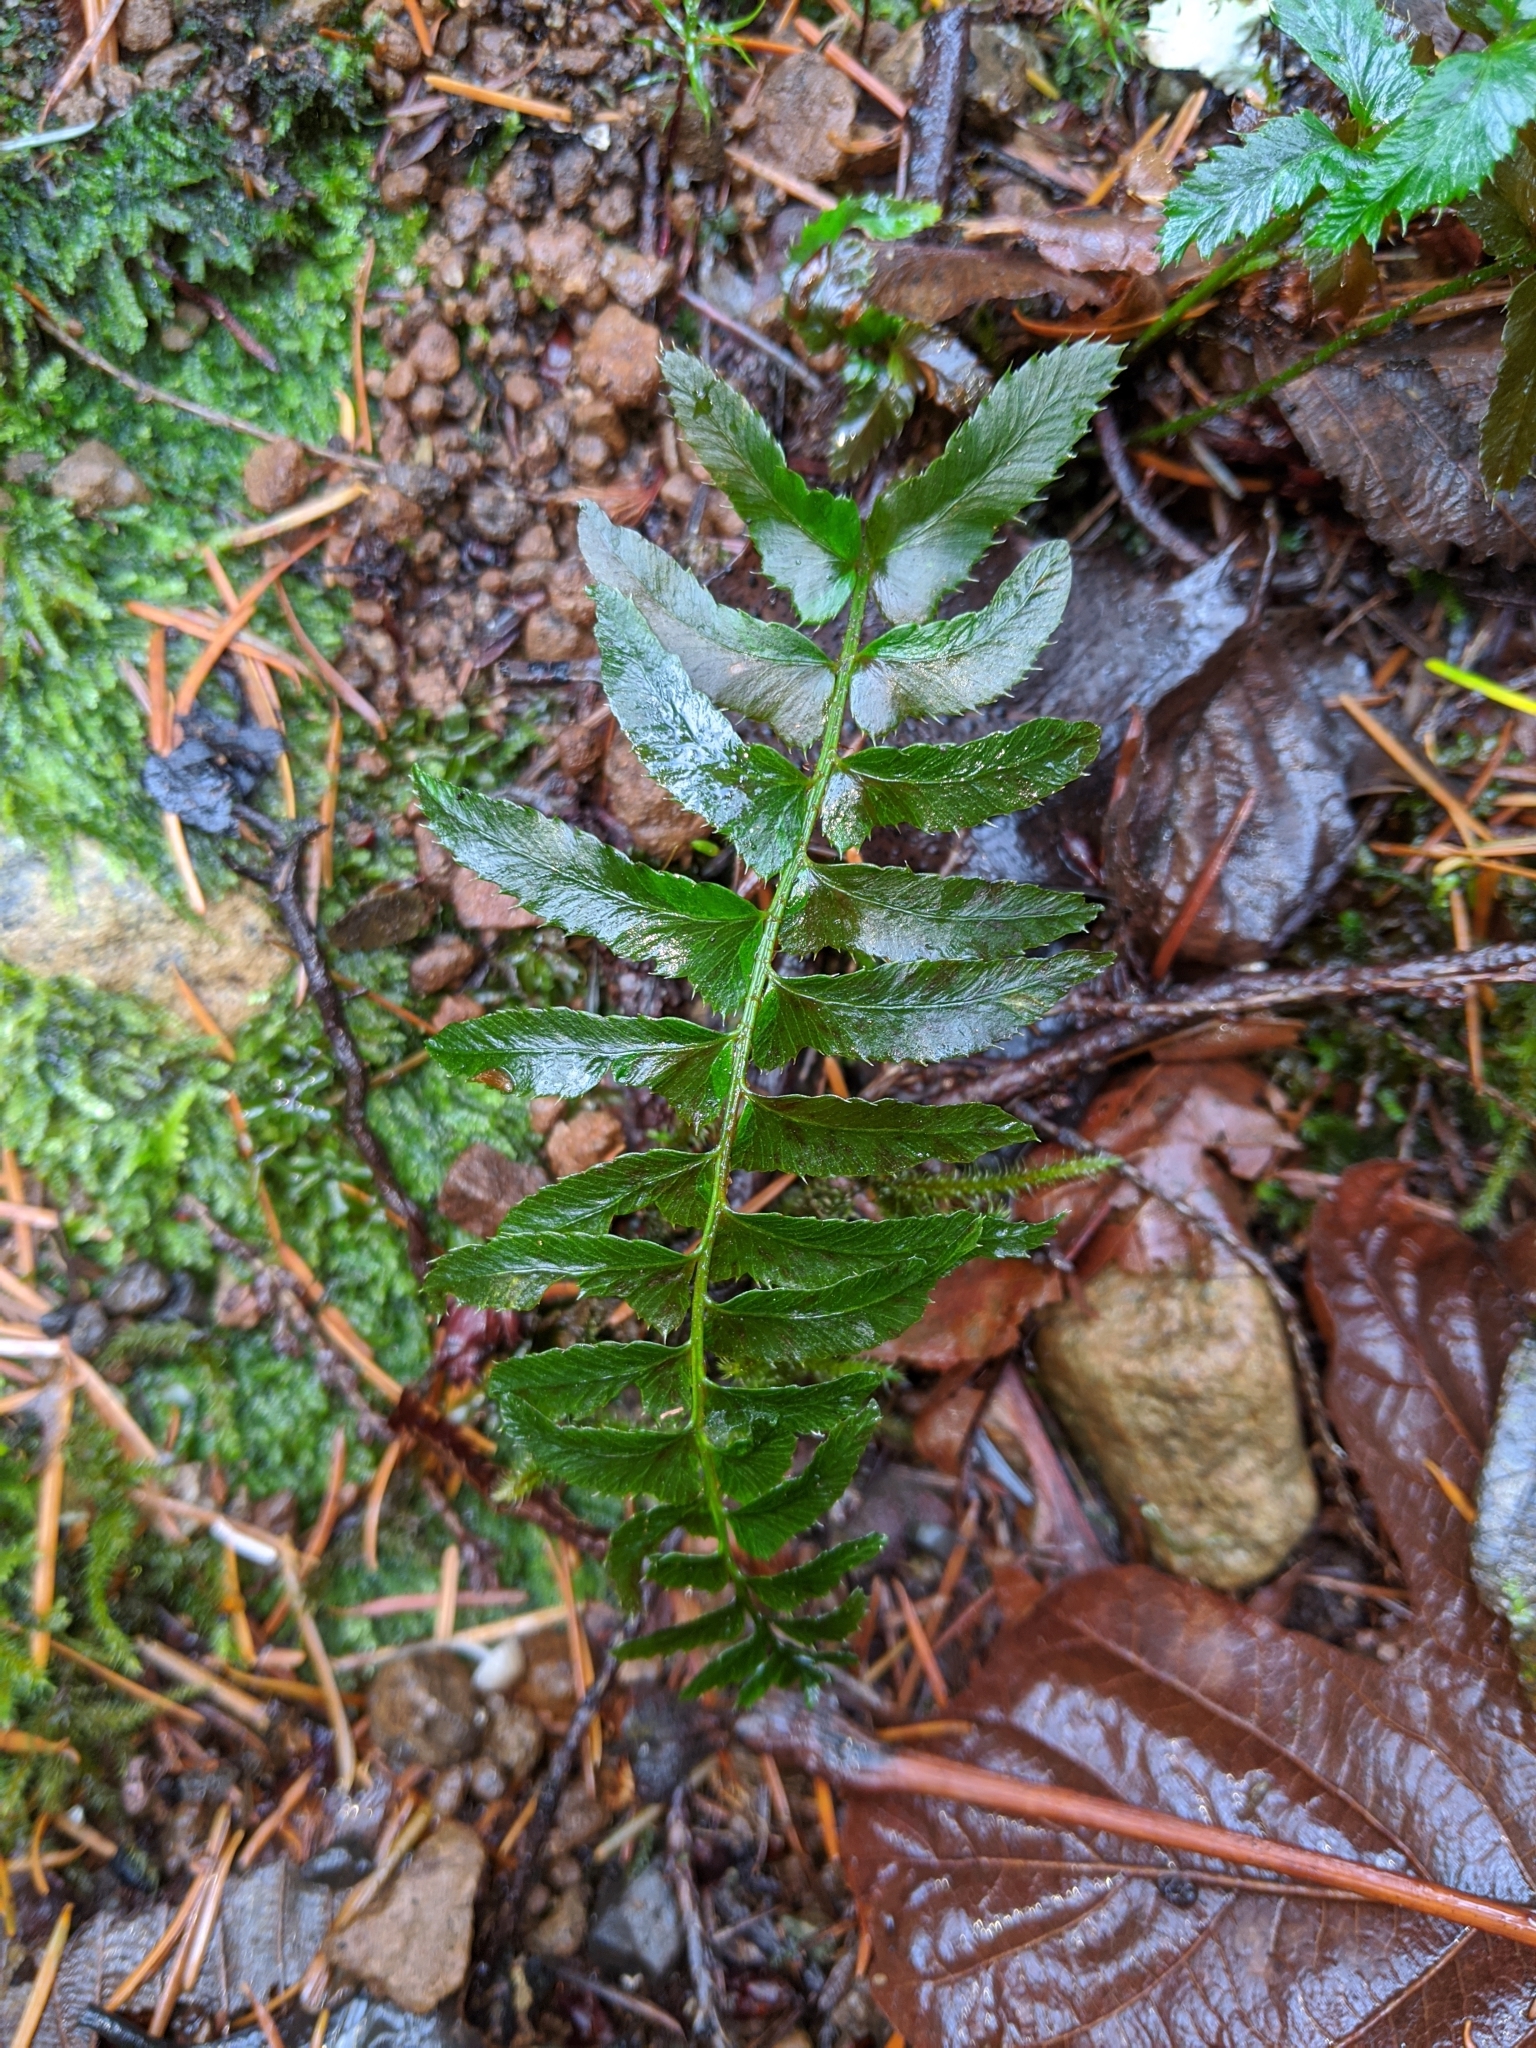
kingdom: Plantae
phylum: Tracheophyta
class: Polypodiopsida
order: Polypodiales
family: Dryopteridaceae
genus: Polystichum
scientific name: Polystichum munitum
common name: Western sword-fern
